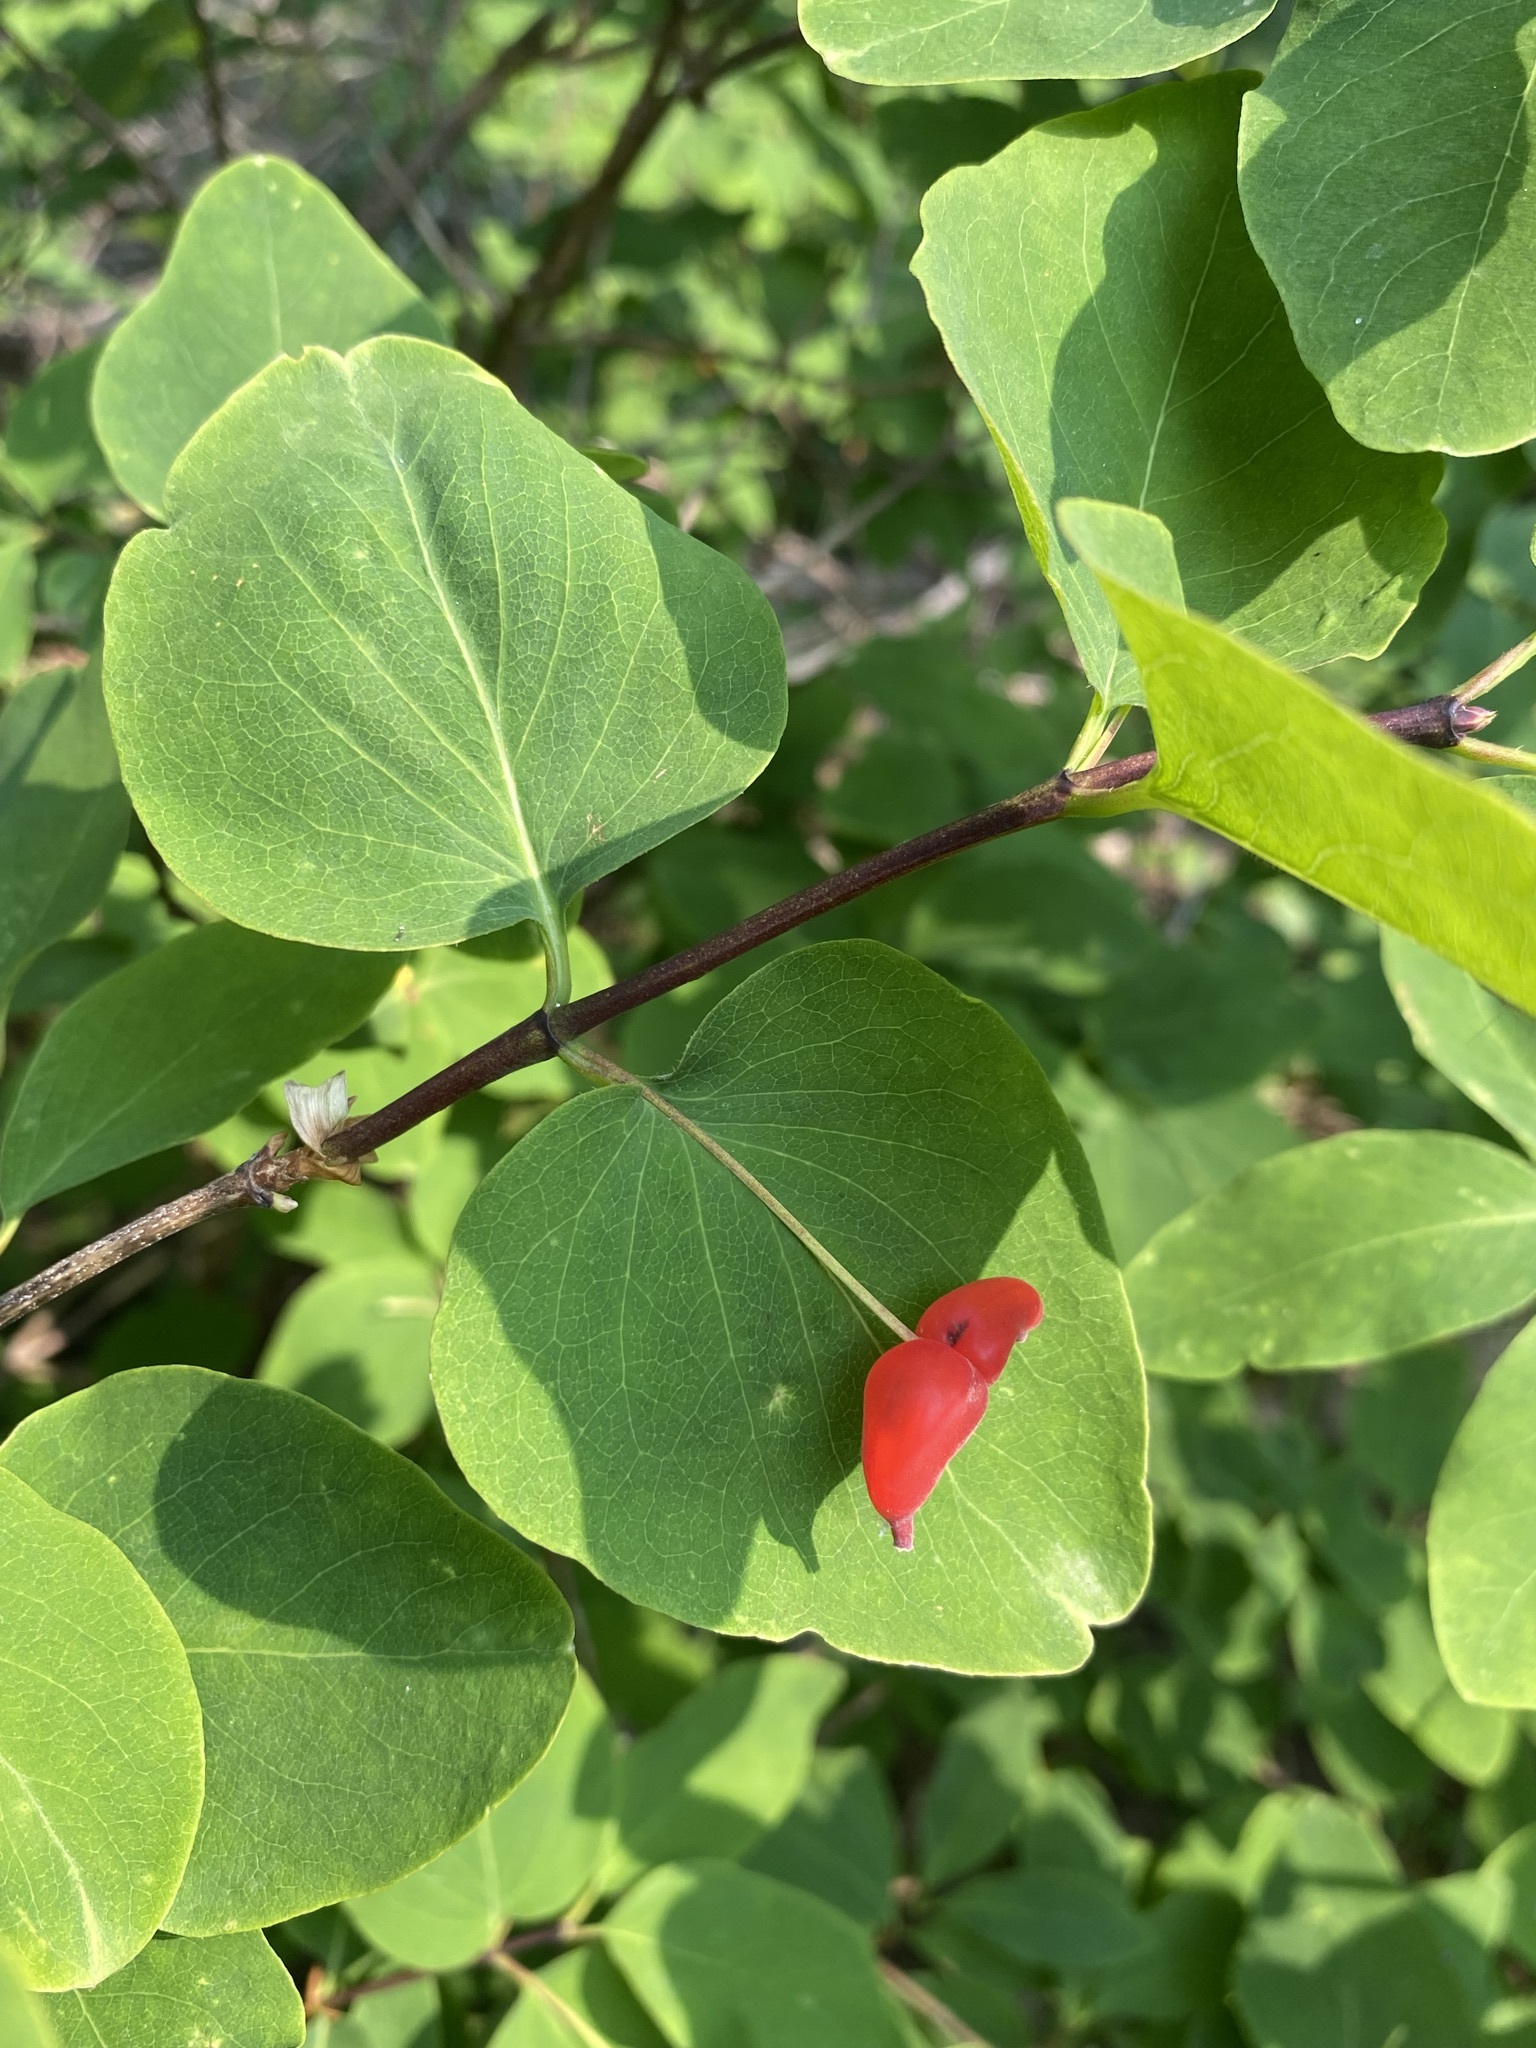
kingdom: Plantae
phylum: Tracheophyta
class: Magnoliopsida
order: Dipsacales
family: Caprifoliaceae
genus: Lonicera
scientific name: Lonicera utahensis
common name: Utah honeysuckle
